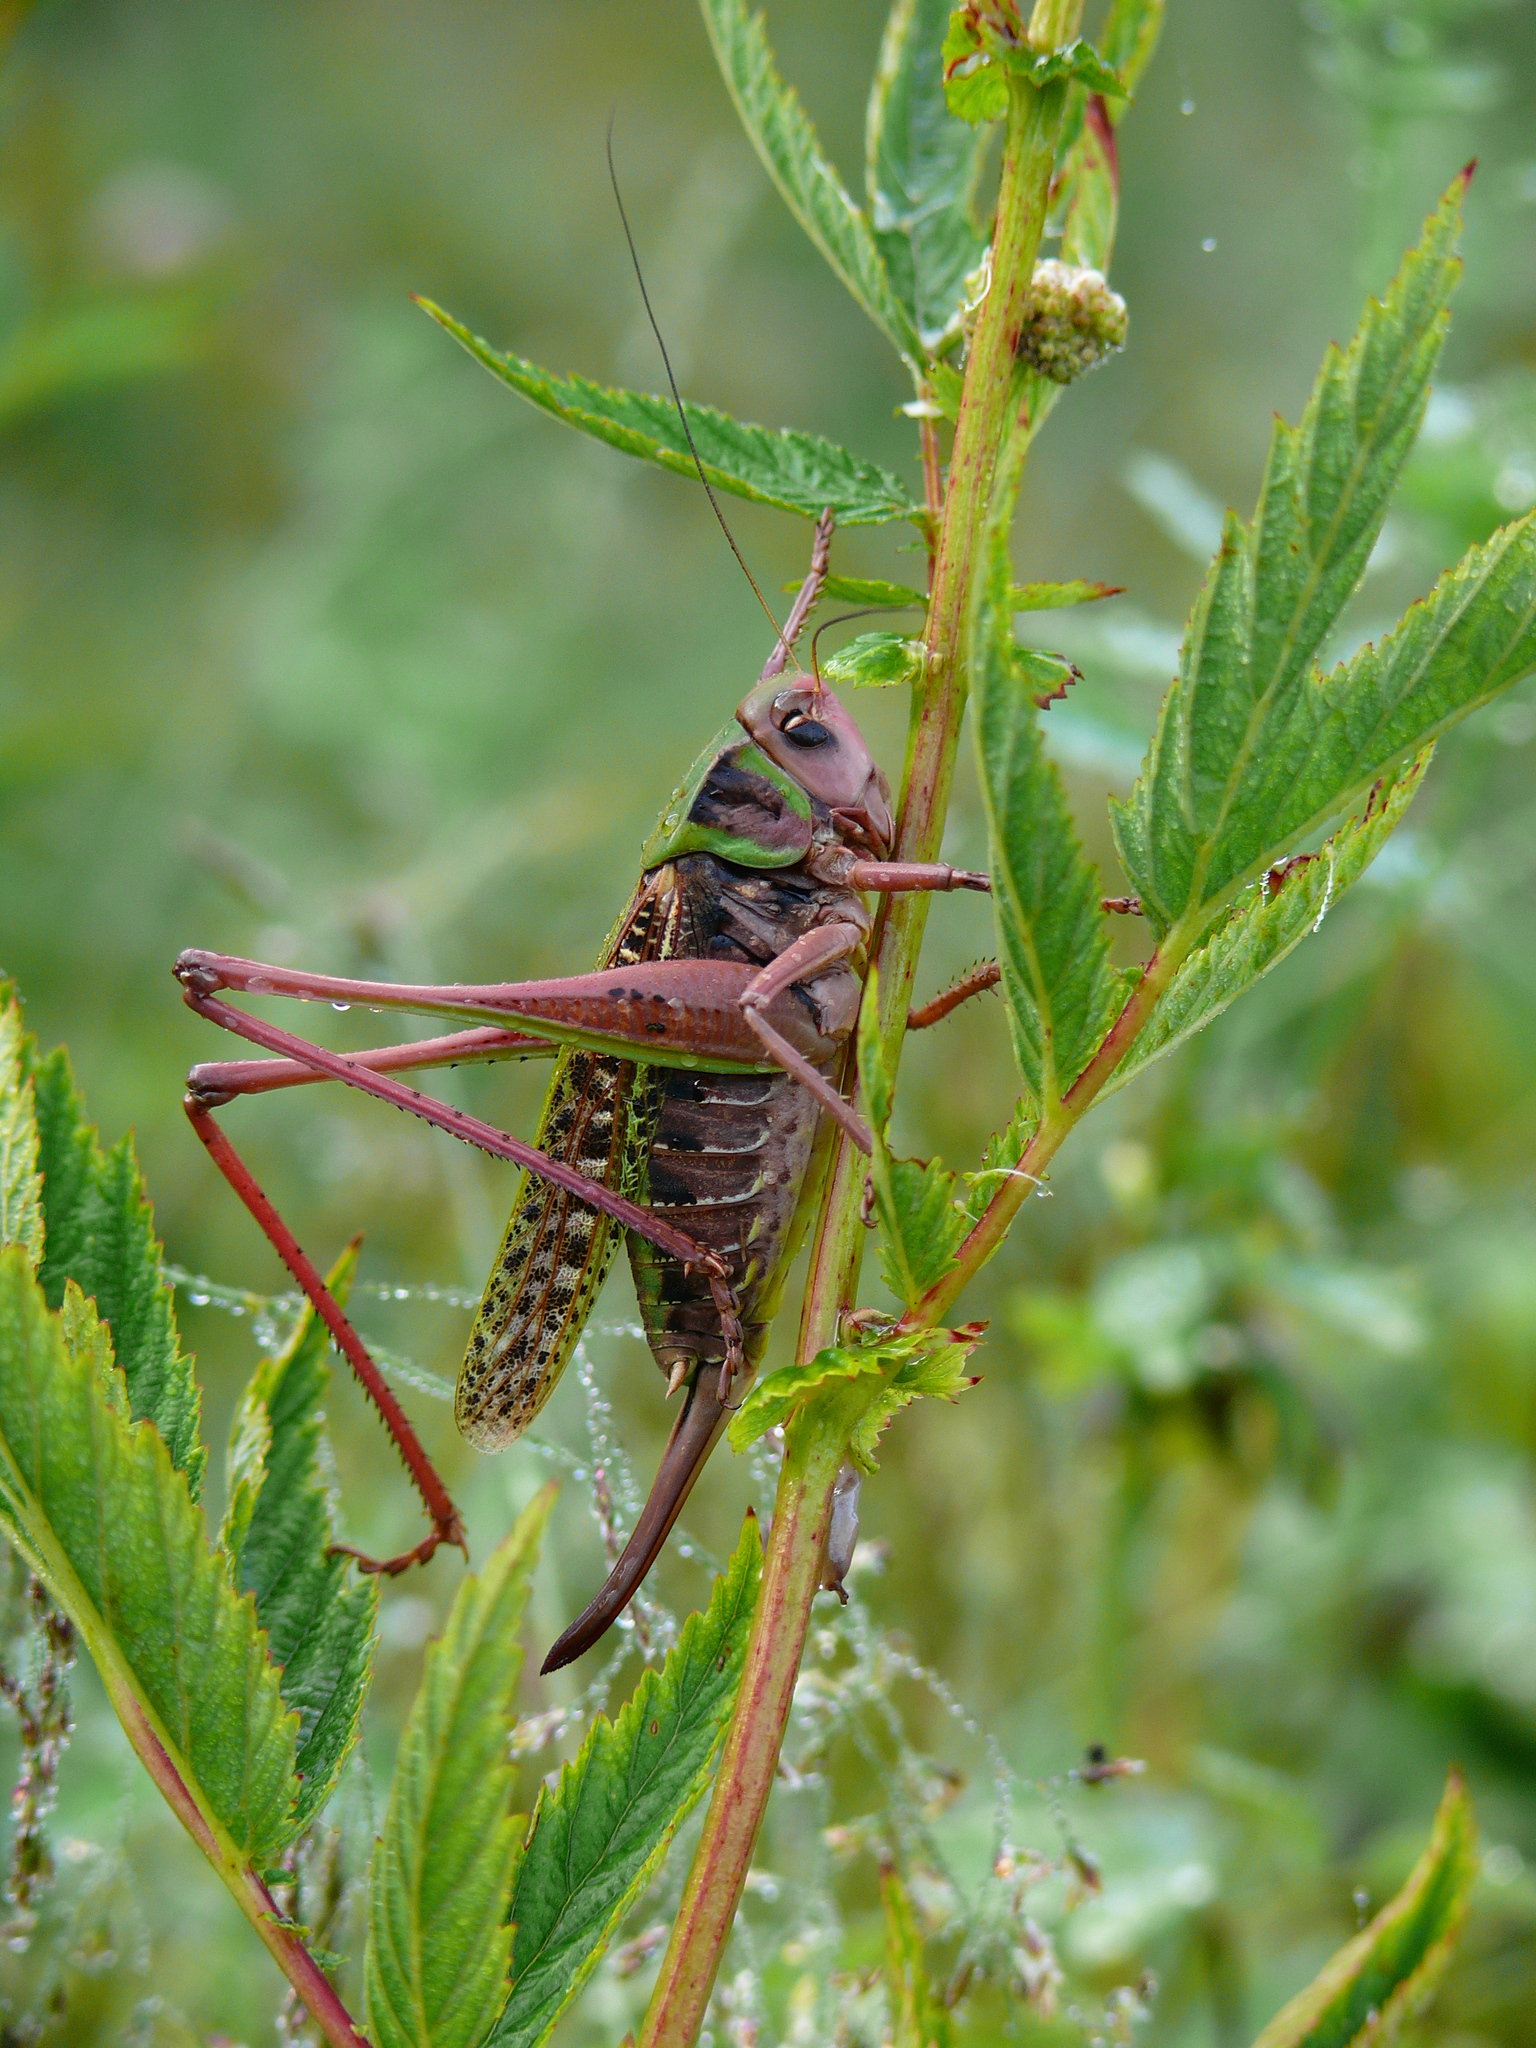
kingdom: Animalia
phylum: Arthropoda
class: Insecta
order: Orthoptera
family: Tettigoniidae
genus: Decticus
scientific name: Decticus verrucivorus
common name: Wart-biter
